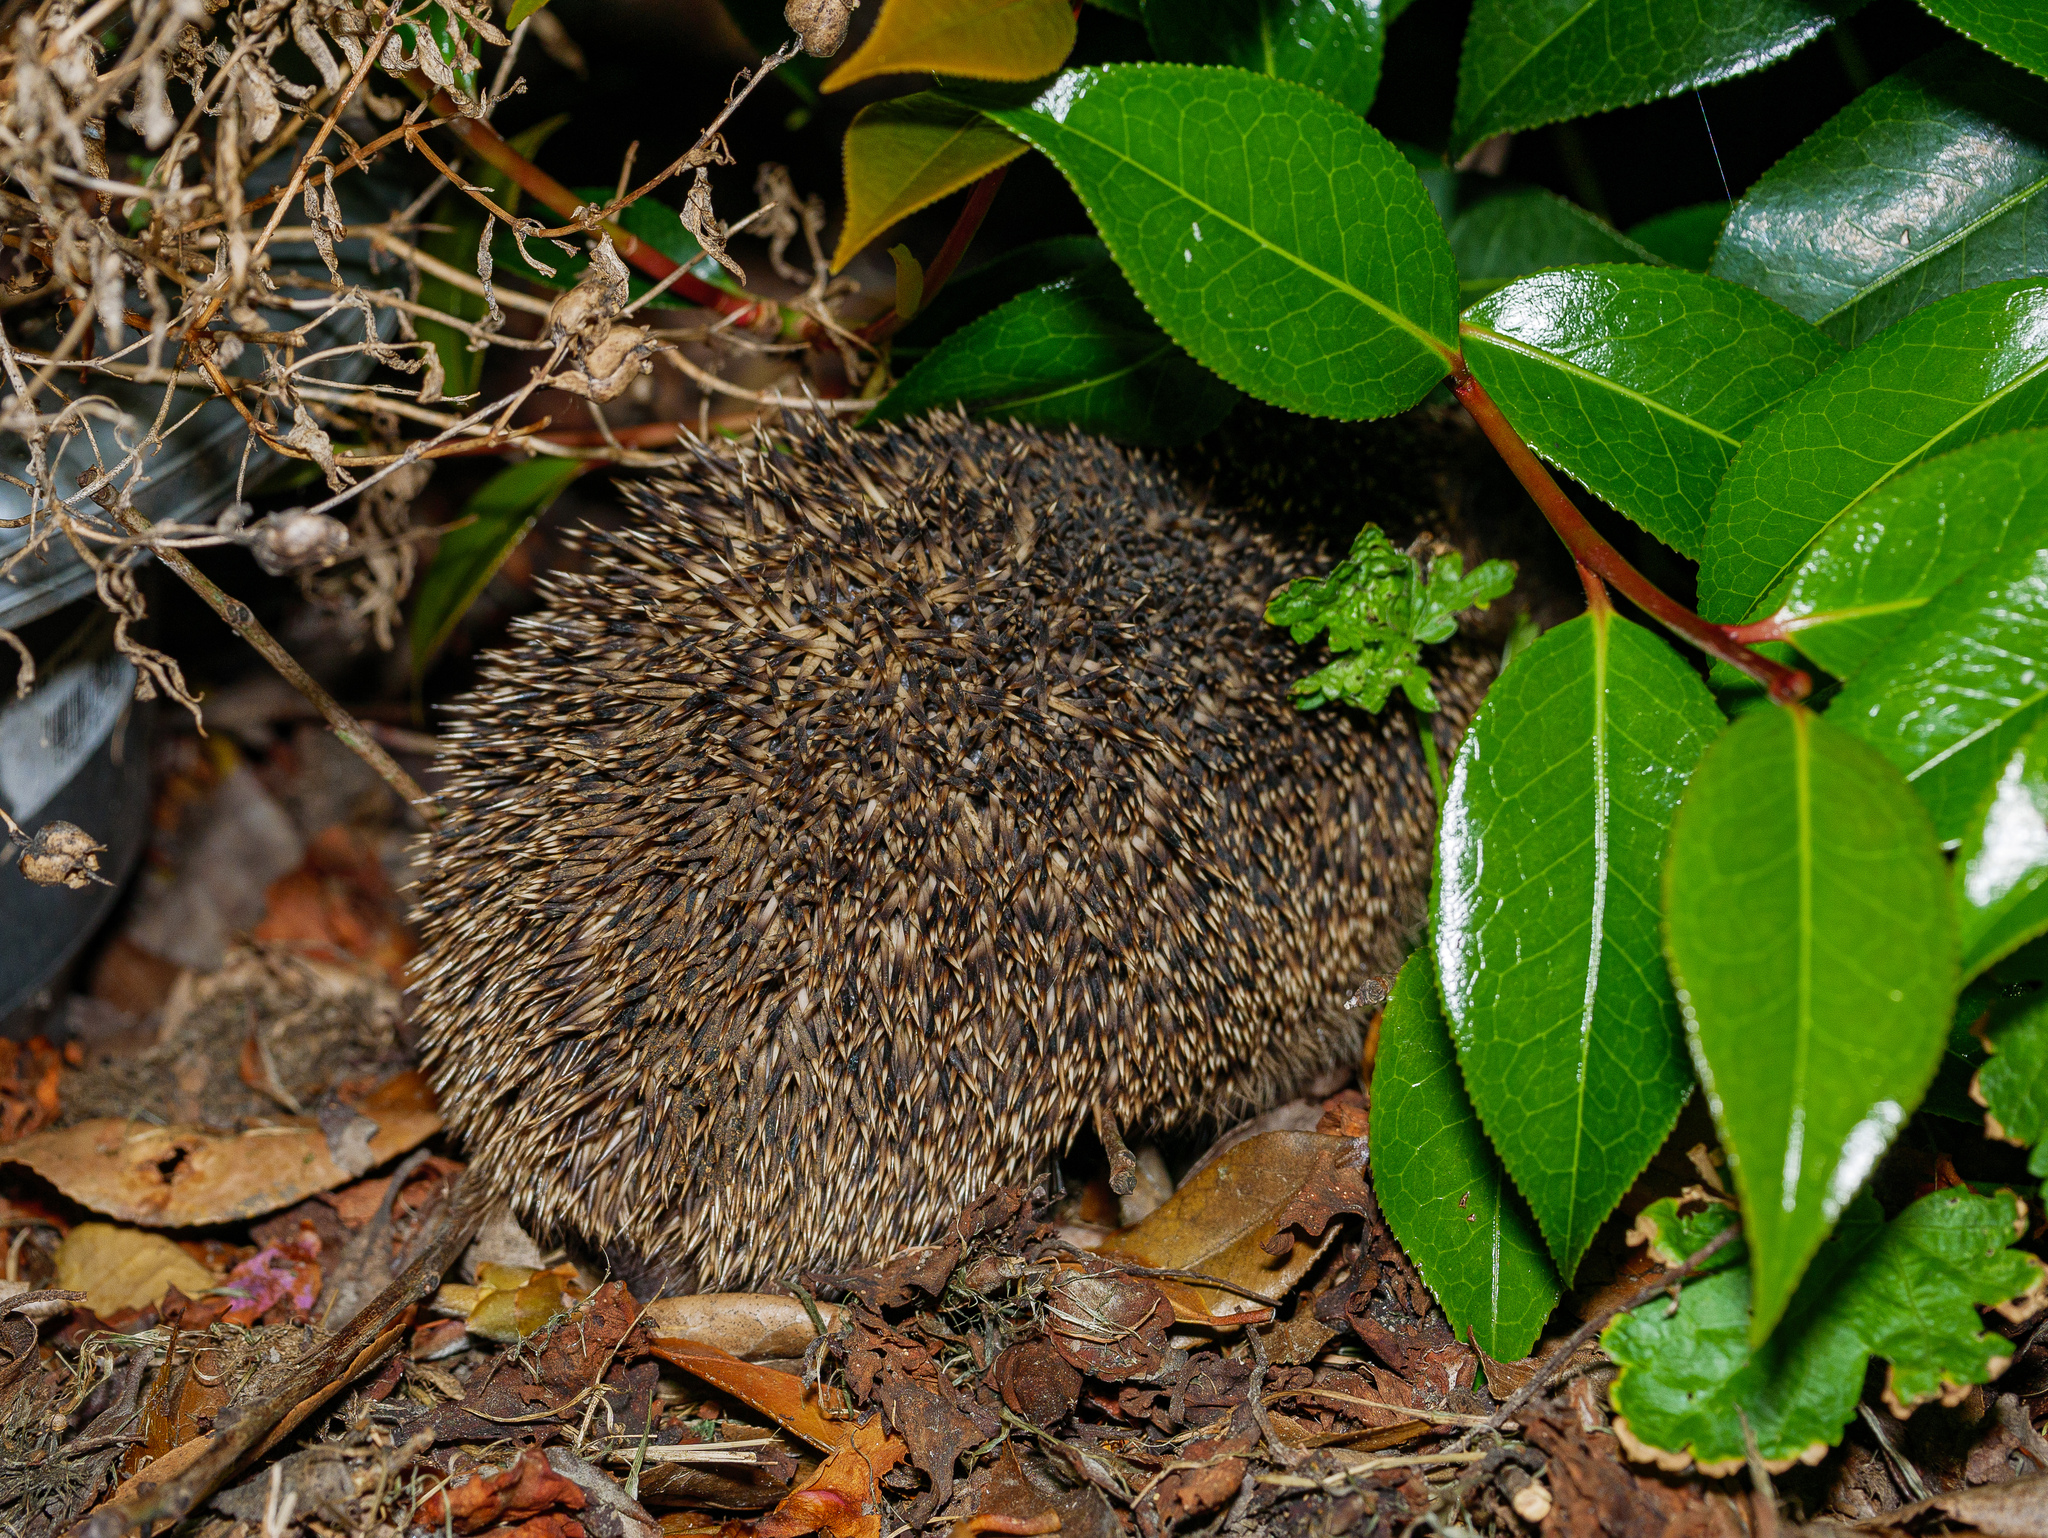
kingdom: Animalia
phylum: Chordata
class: Mammalia
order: Erinaceomorpha
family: Erinaceidae
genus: Erinaceus
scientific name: Erinaceus europaeus
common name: West european hedgehog
